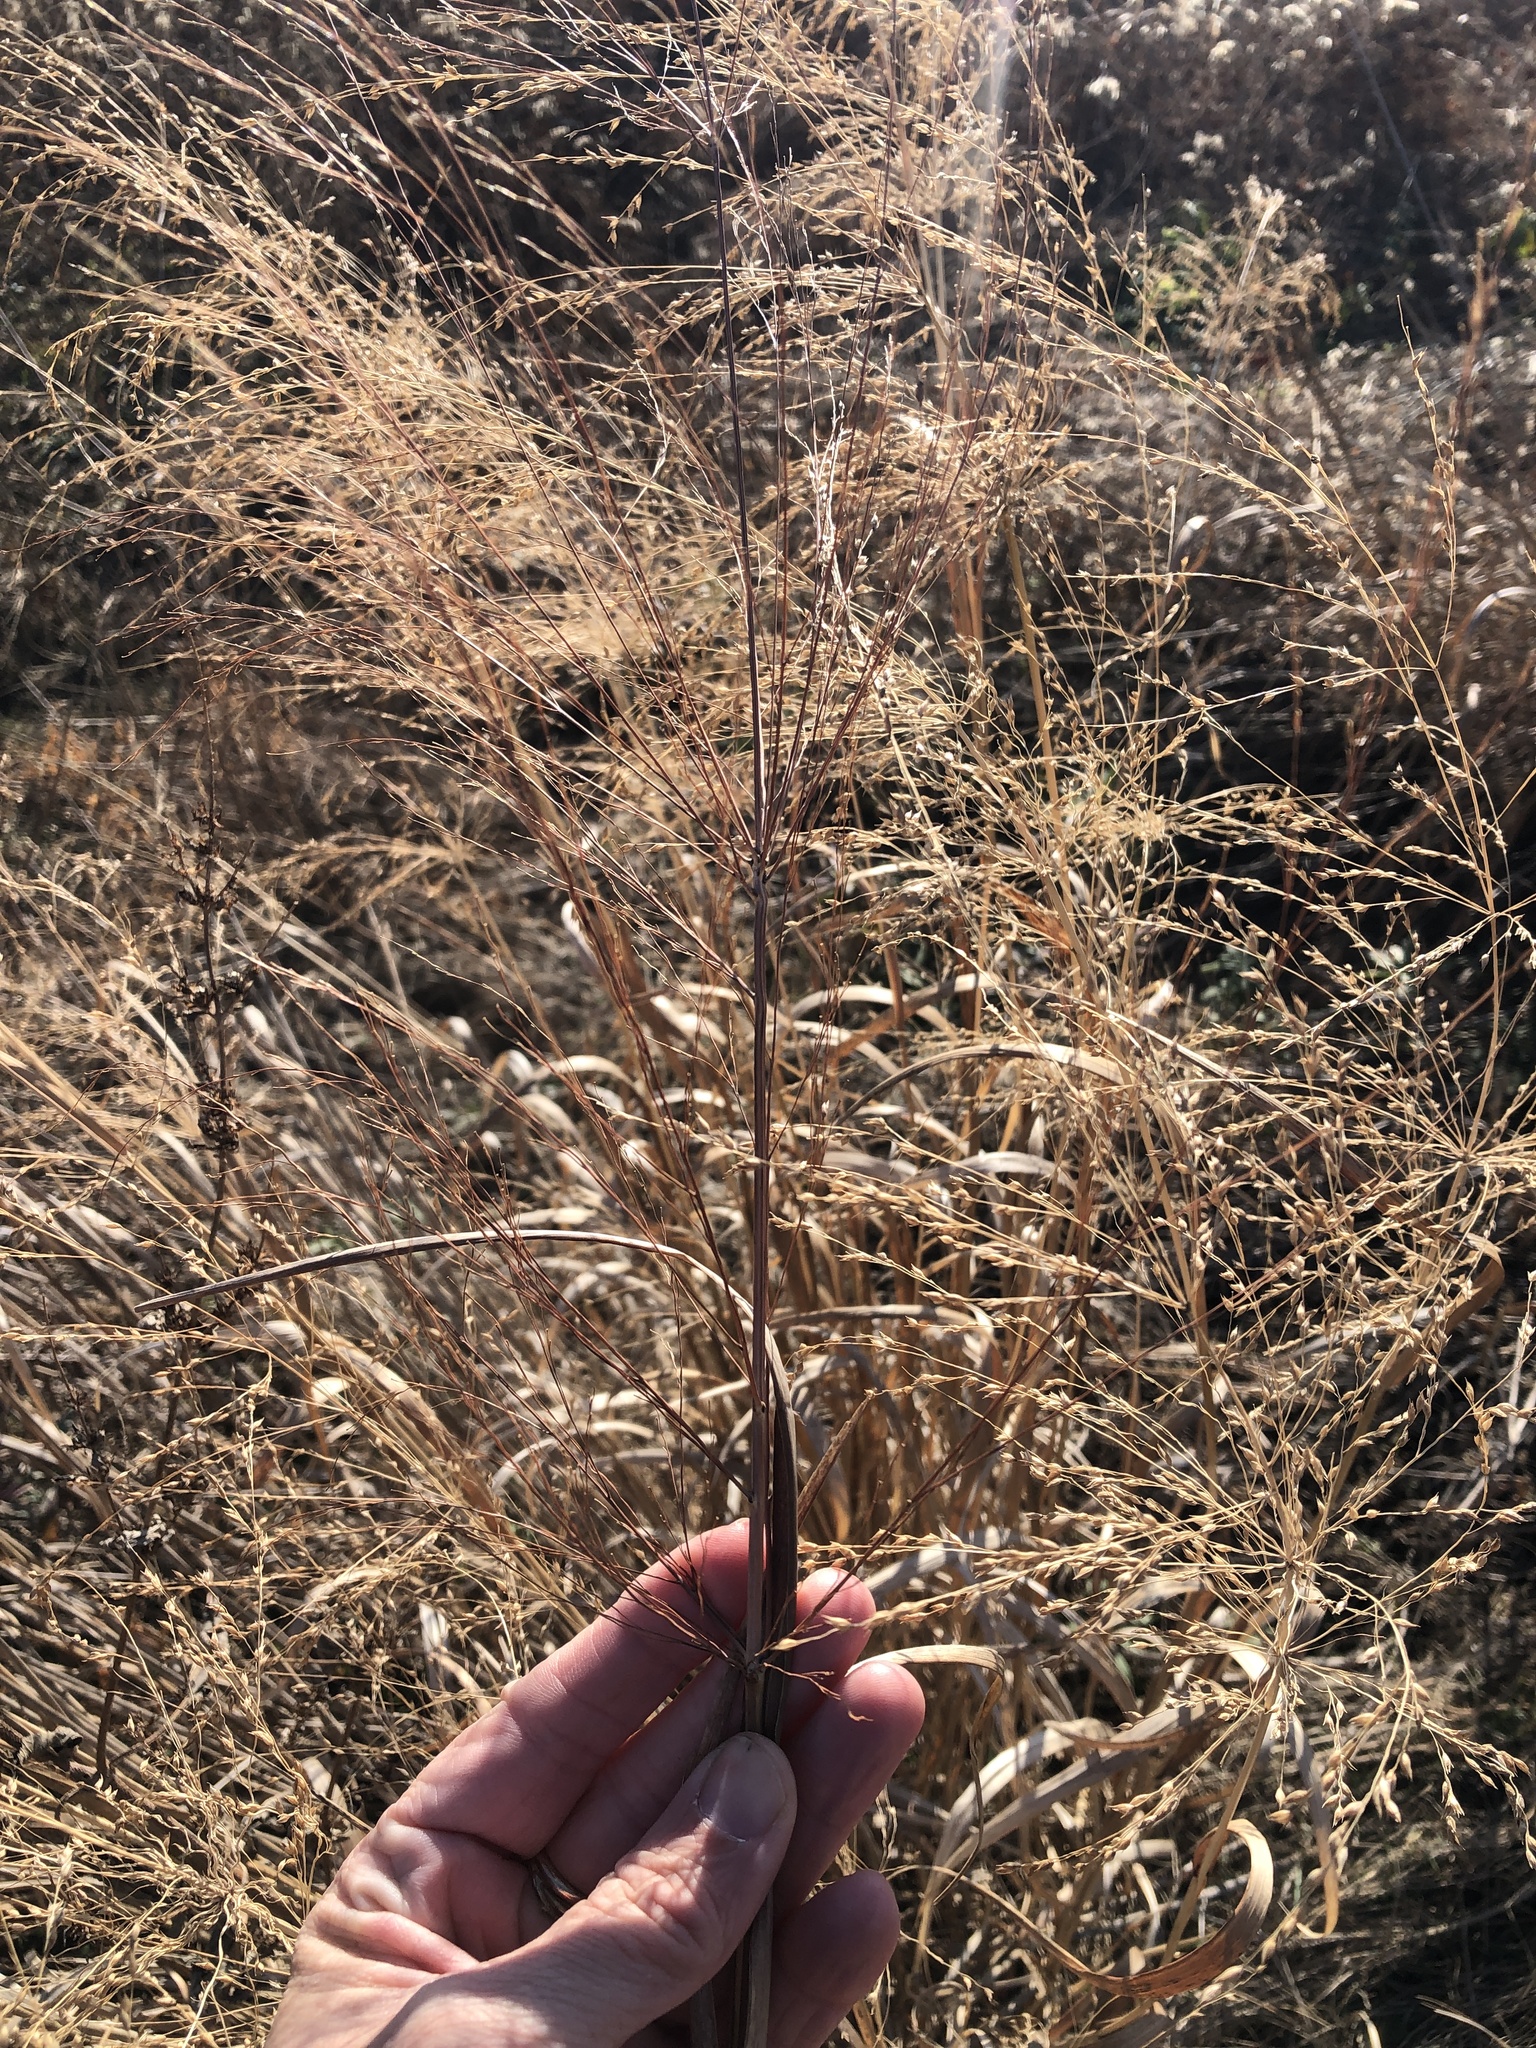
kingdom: Plantae
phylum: Tracheophyta
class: Liliopsida
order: Poales
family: Poaceae
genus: Panicum
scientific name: Panicum virgatum
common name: Switchgrass
